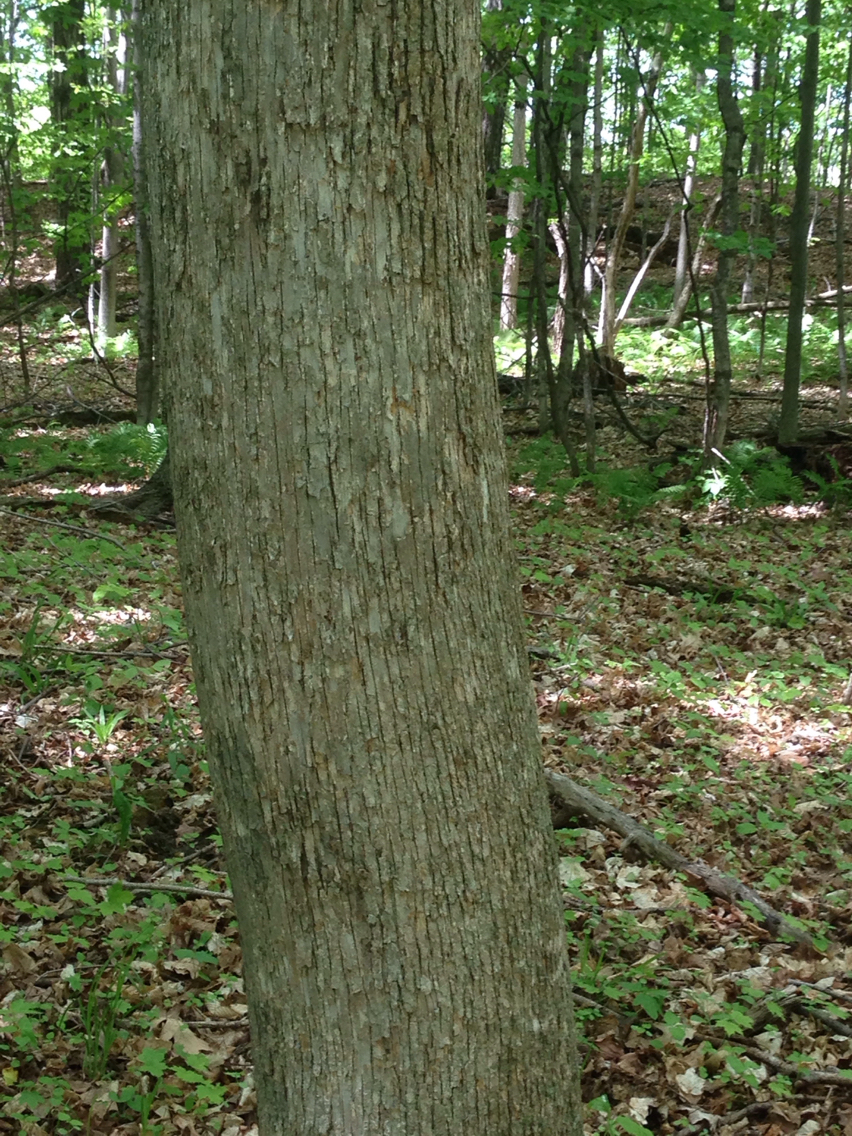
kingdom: Plantae
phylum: Tracheophyta
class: Magnoliopsida
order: Fagales
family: Betulaceae
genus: Ostrya
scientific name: Ostrya virginiana
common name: Ironwood
